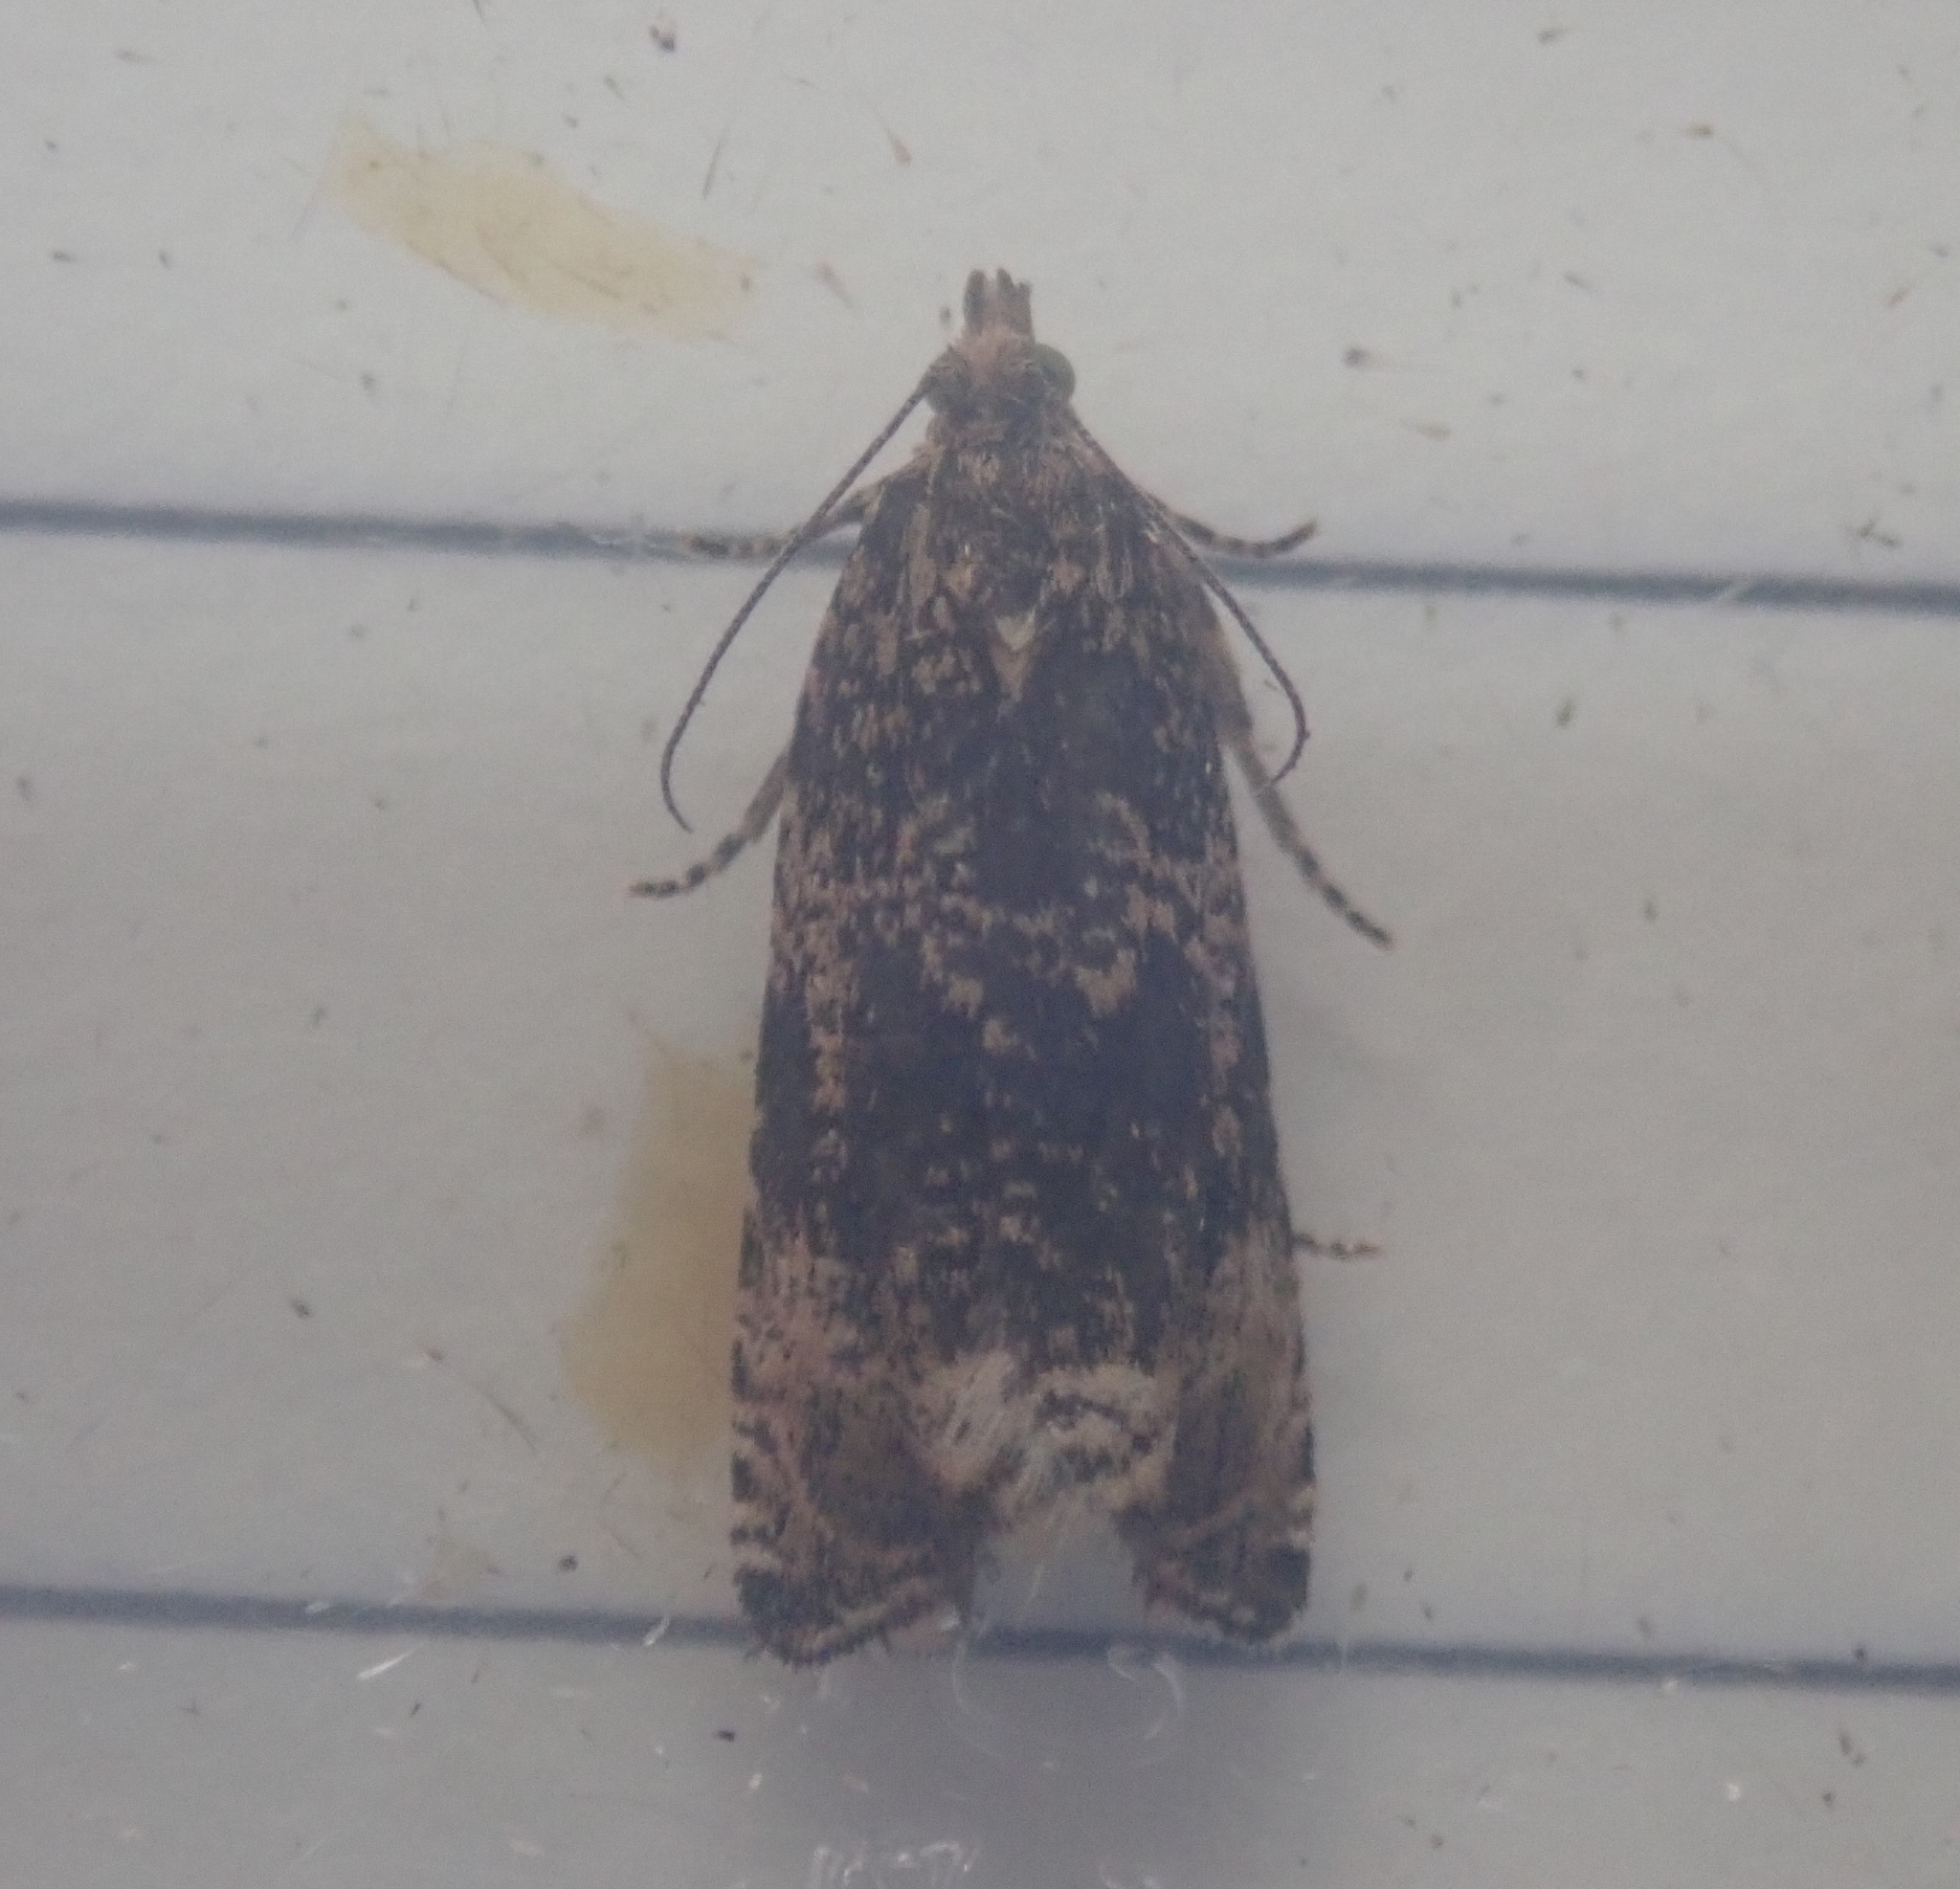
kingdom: Animalia
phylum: Arthropoda
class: Insecta
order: Lepidoptera
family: Tortricidae
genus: Syricoris
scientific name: Syricoris lacunana
